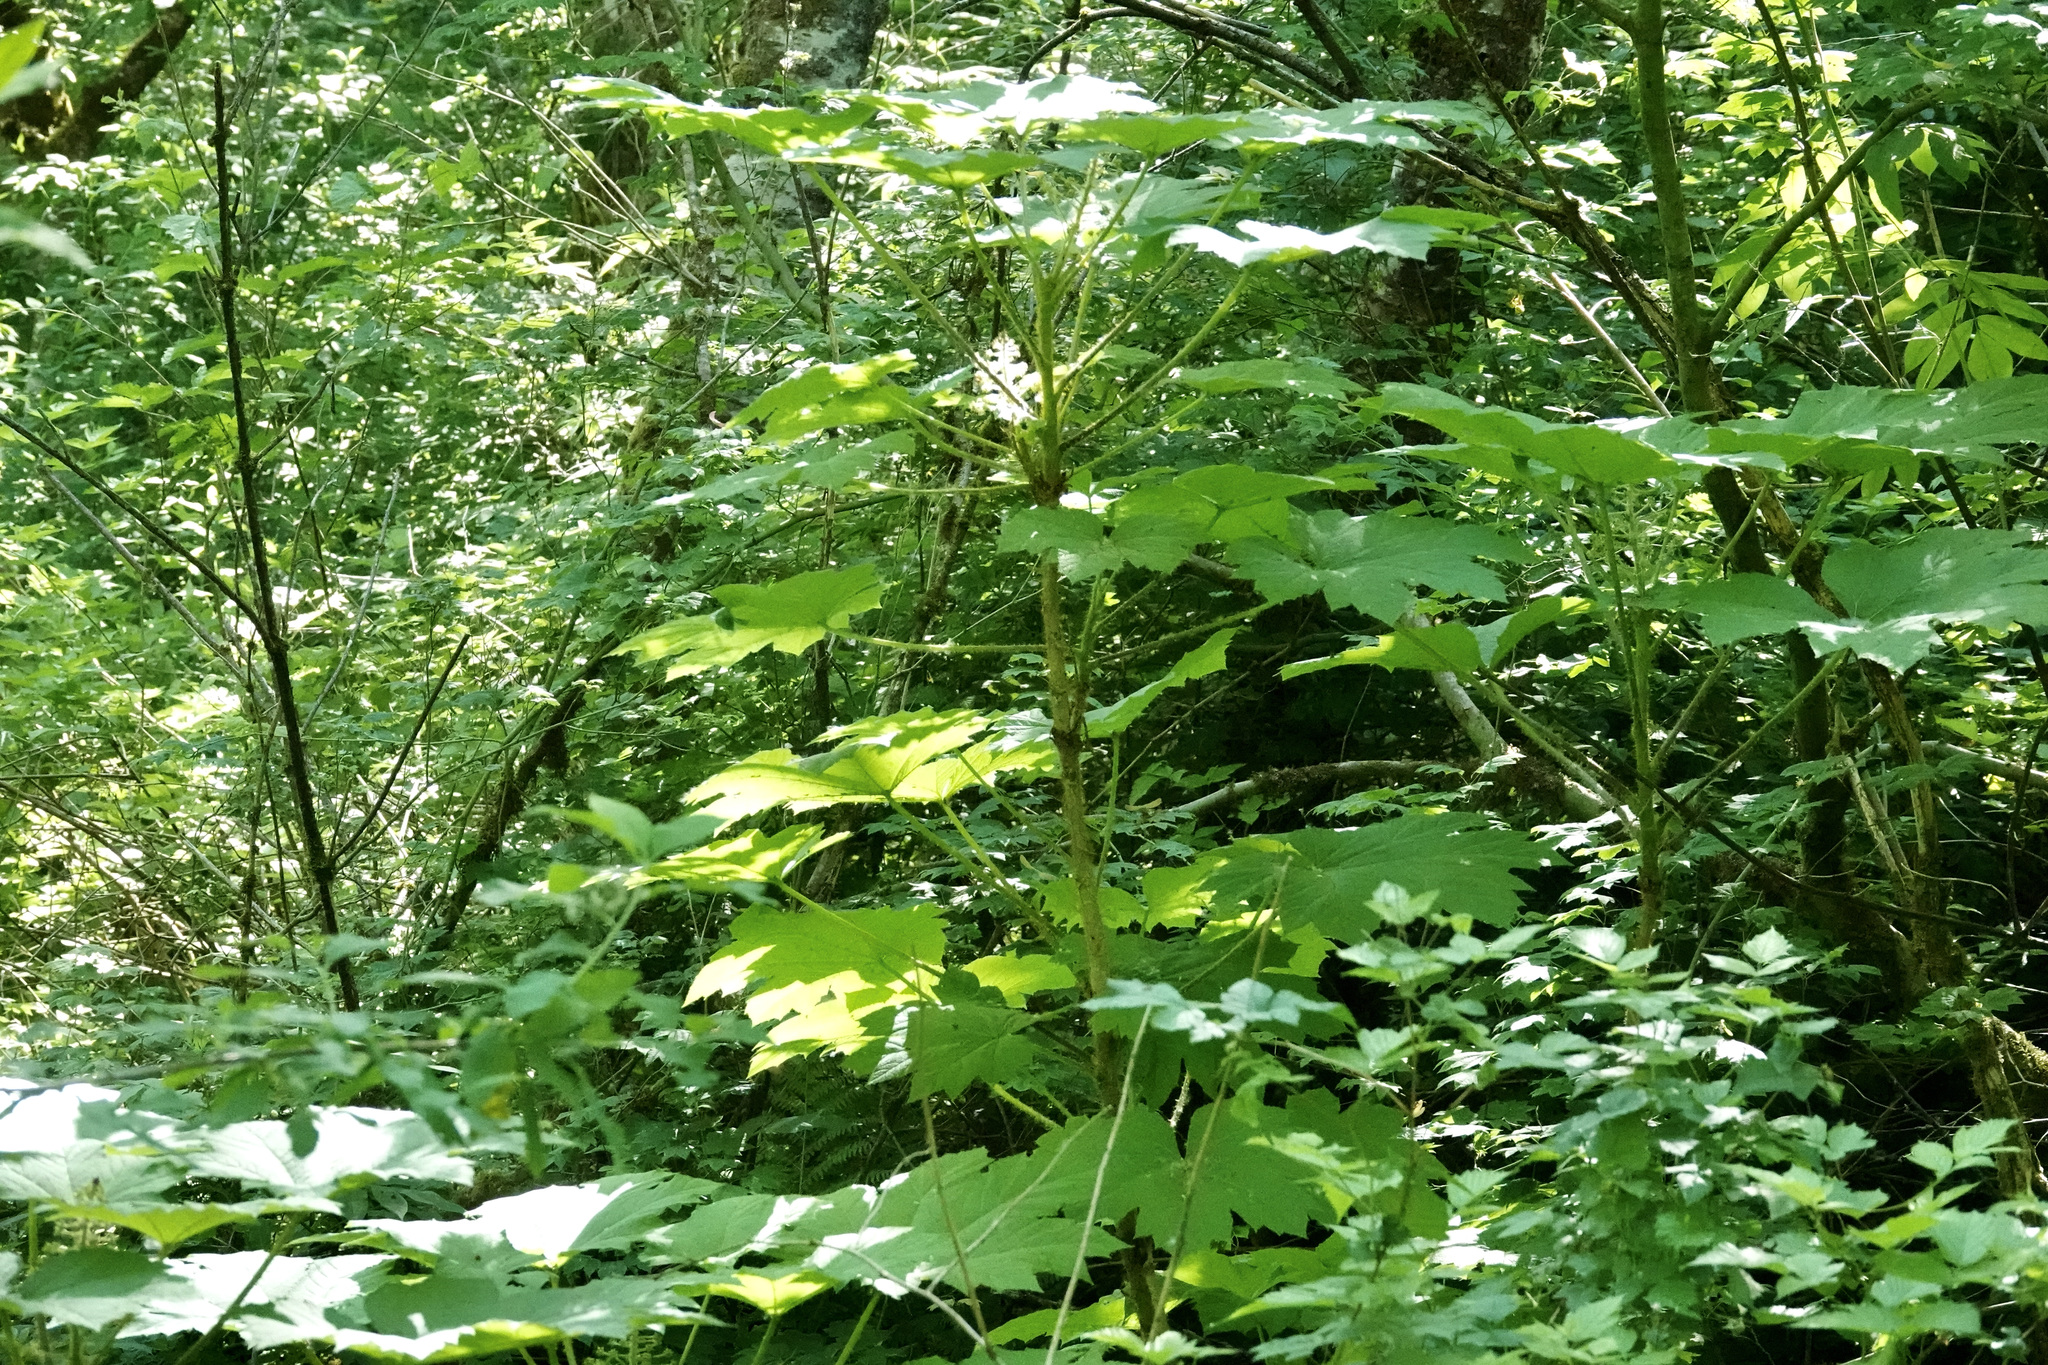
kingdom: Plantae
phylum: Tracheophyta
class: Magnoliopsida
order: Apiales
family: Araliaceae
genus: Oplopanax
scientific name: Oplopanax horridus
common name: Devil's walking-stick
